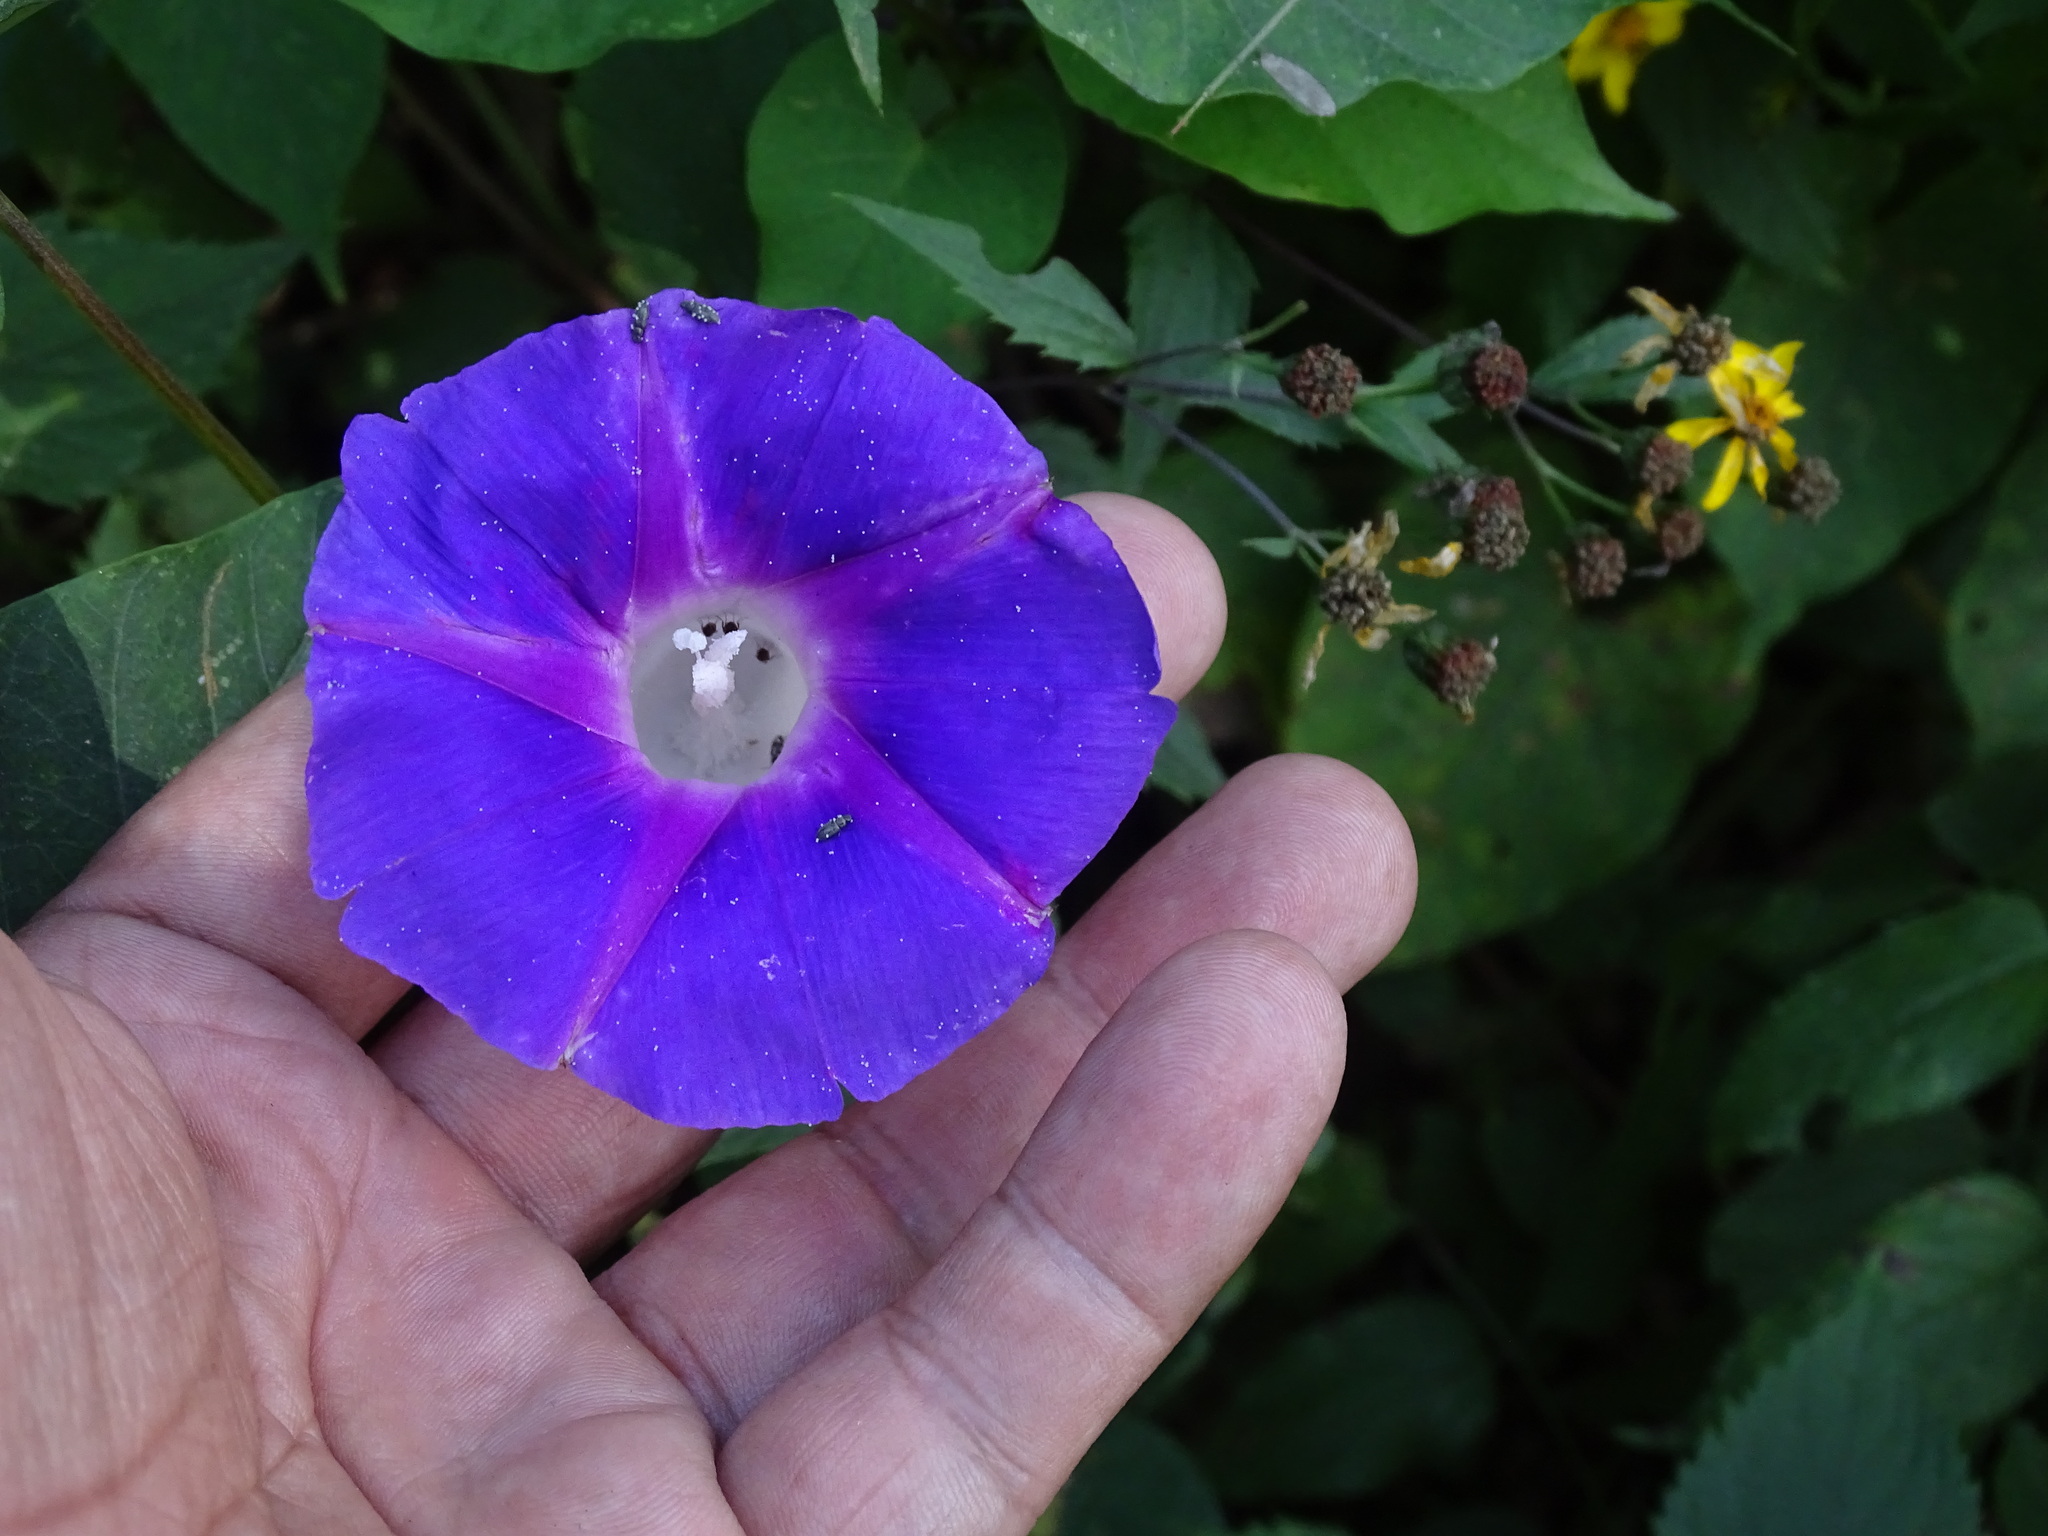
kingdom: Plantae
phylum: Tracheophyta
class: Magnoliopsida
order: Solanales
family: Convolvulaceae
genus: Ipomoea
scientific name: Ipomoea orizabensis
